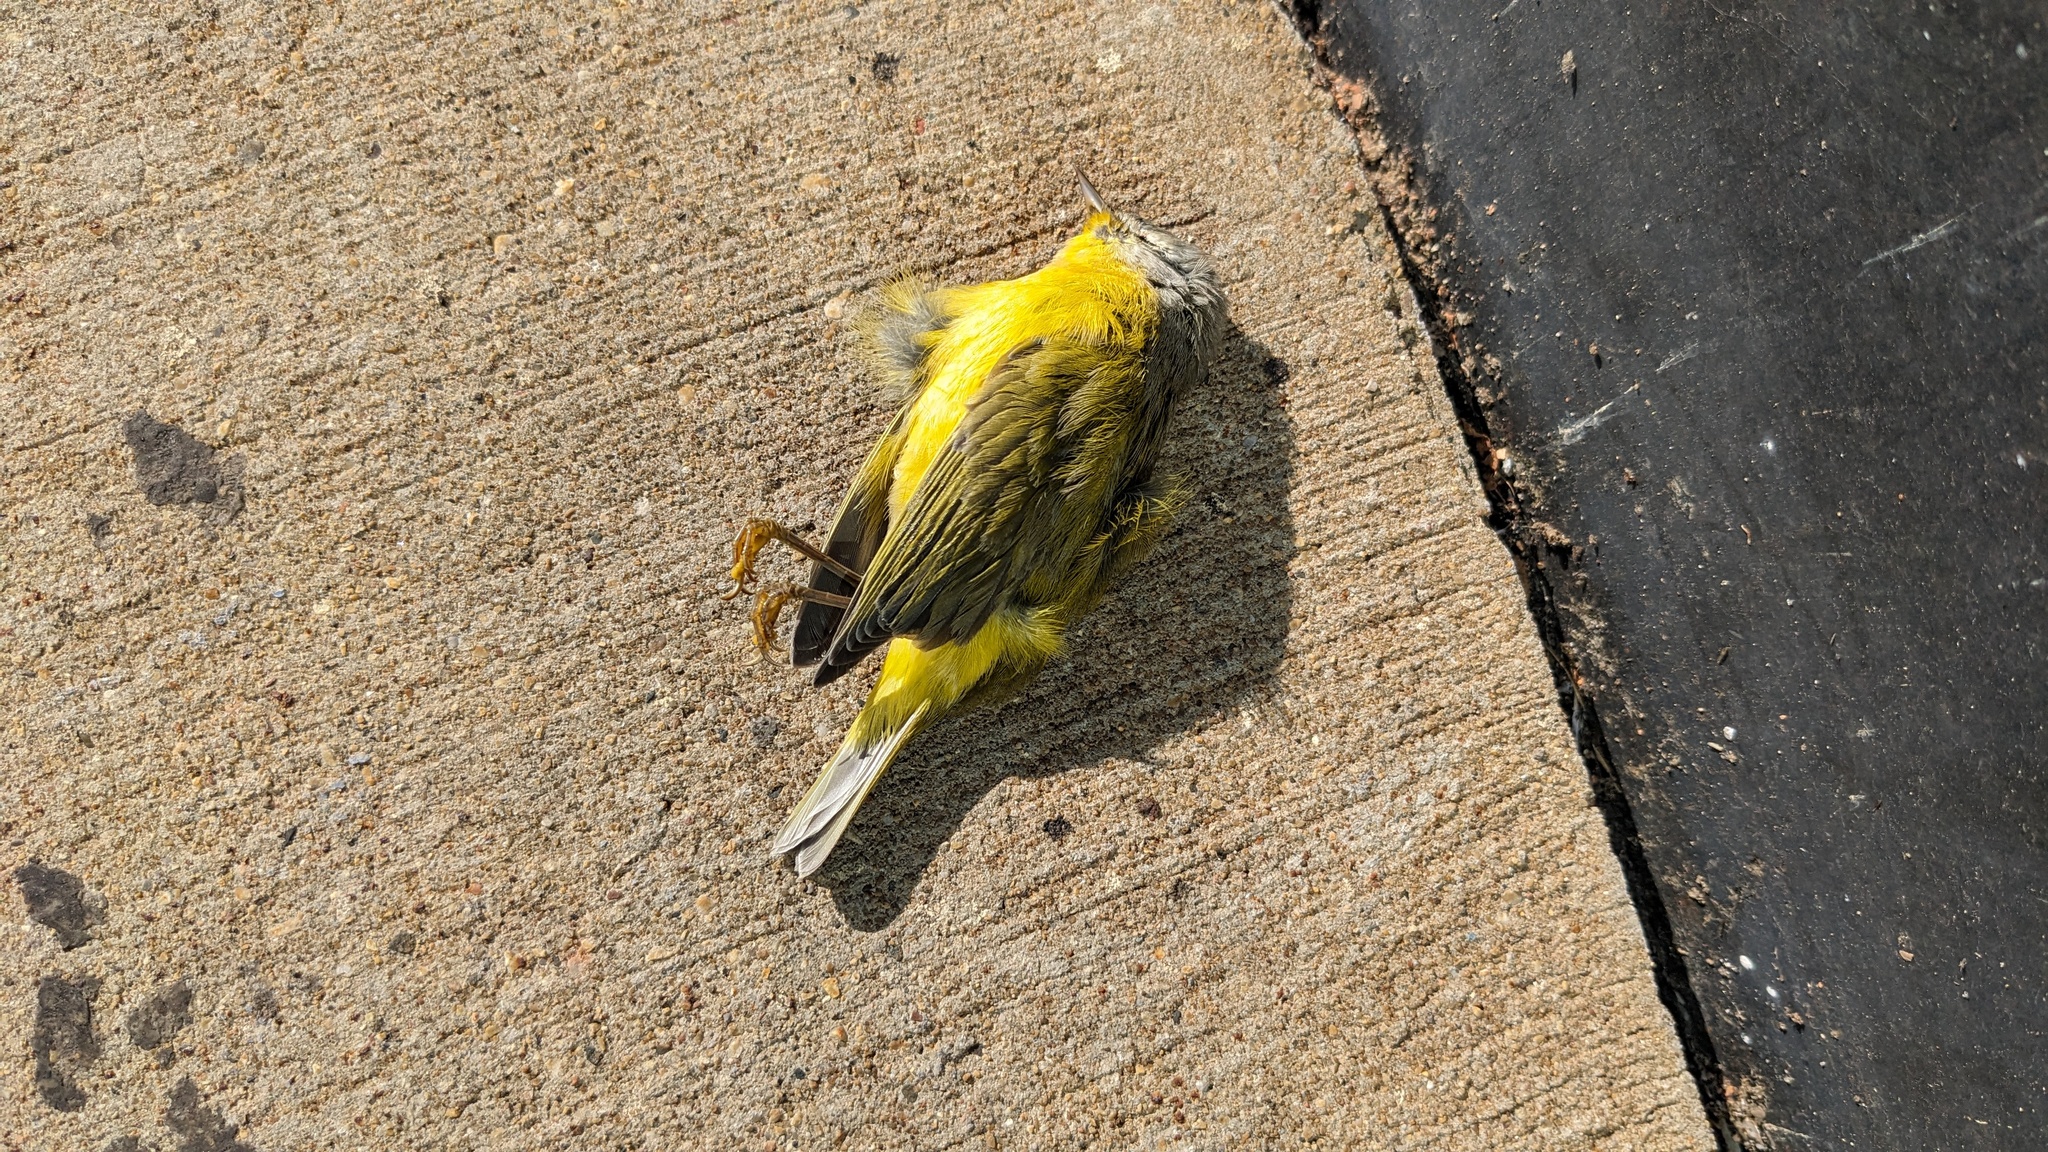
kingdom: Animalia
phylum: Chordata
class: Aves
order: Passeriformes
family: Parulidae
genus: Leiothlypis
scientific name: Leiothlypis ruficapilla
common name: Nashville warbler
